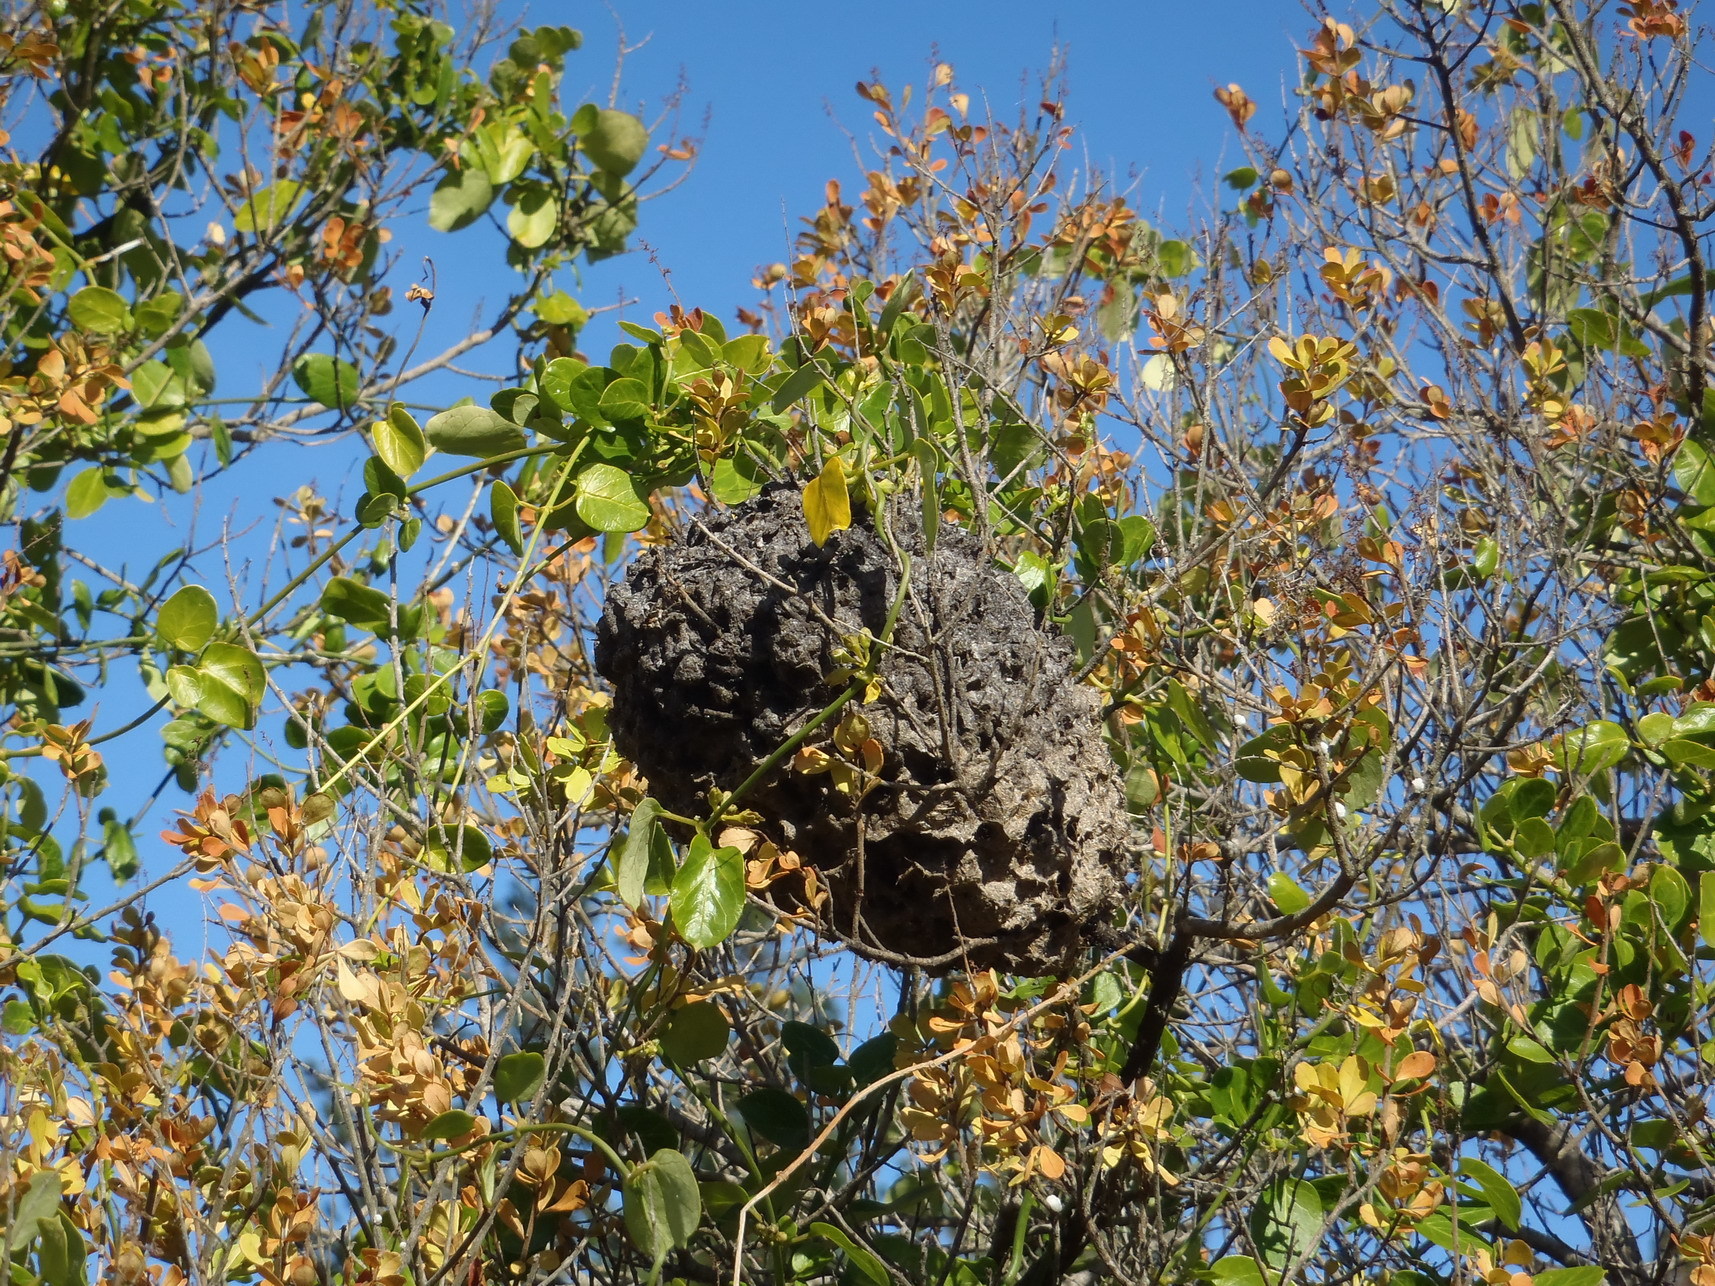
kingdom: Animalia
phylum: Arthropoda
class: Insecta
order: Hymenoptera
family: Formicidae
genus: Crematogaster
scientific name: Crematogaster peringueyi
